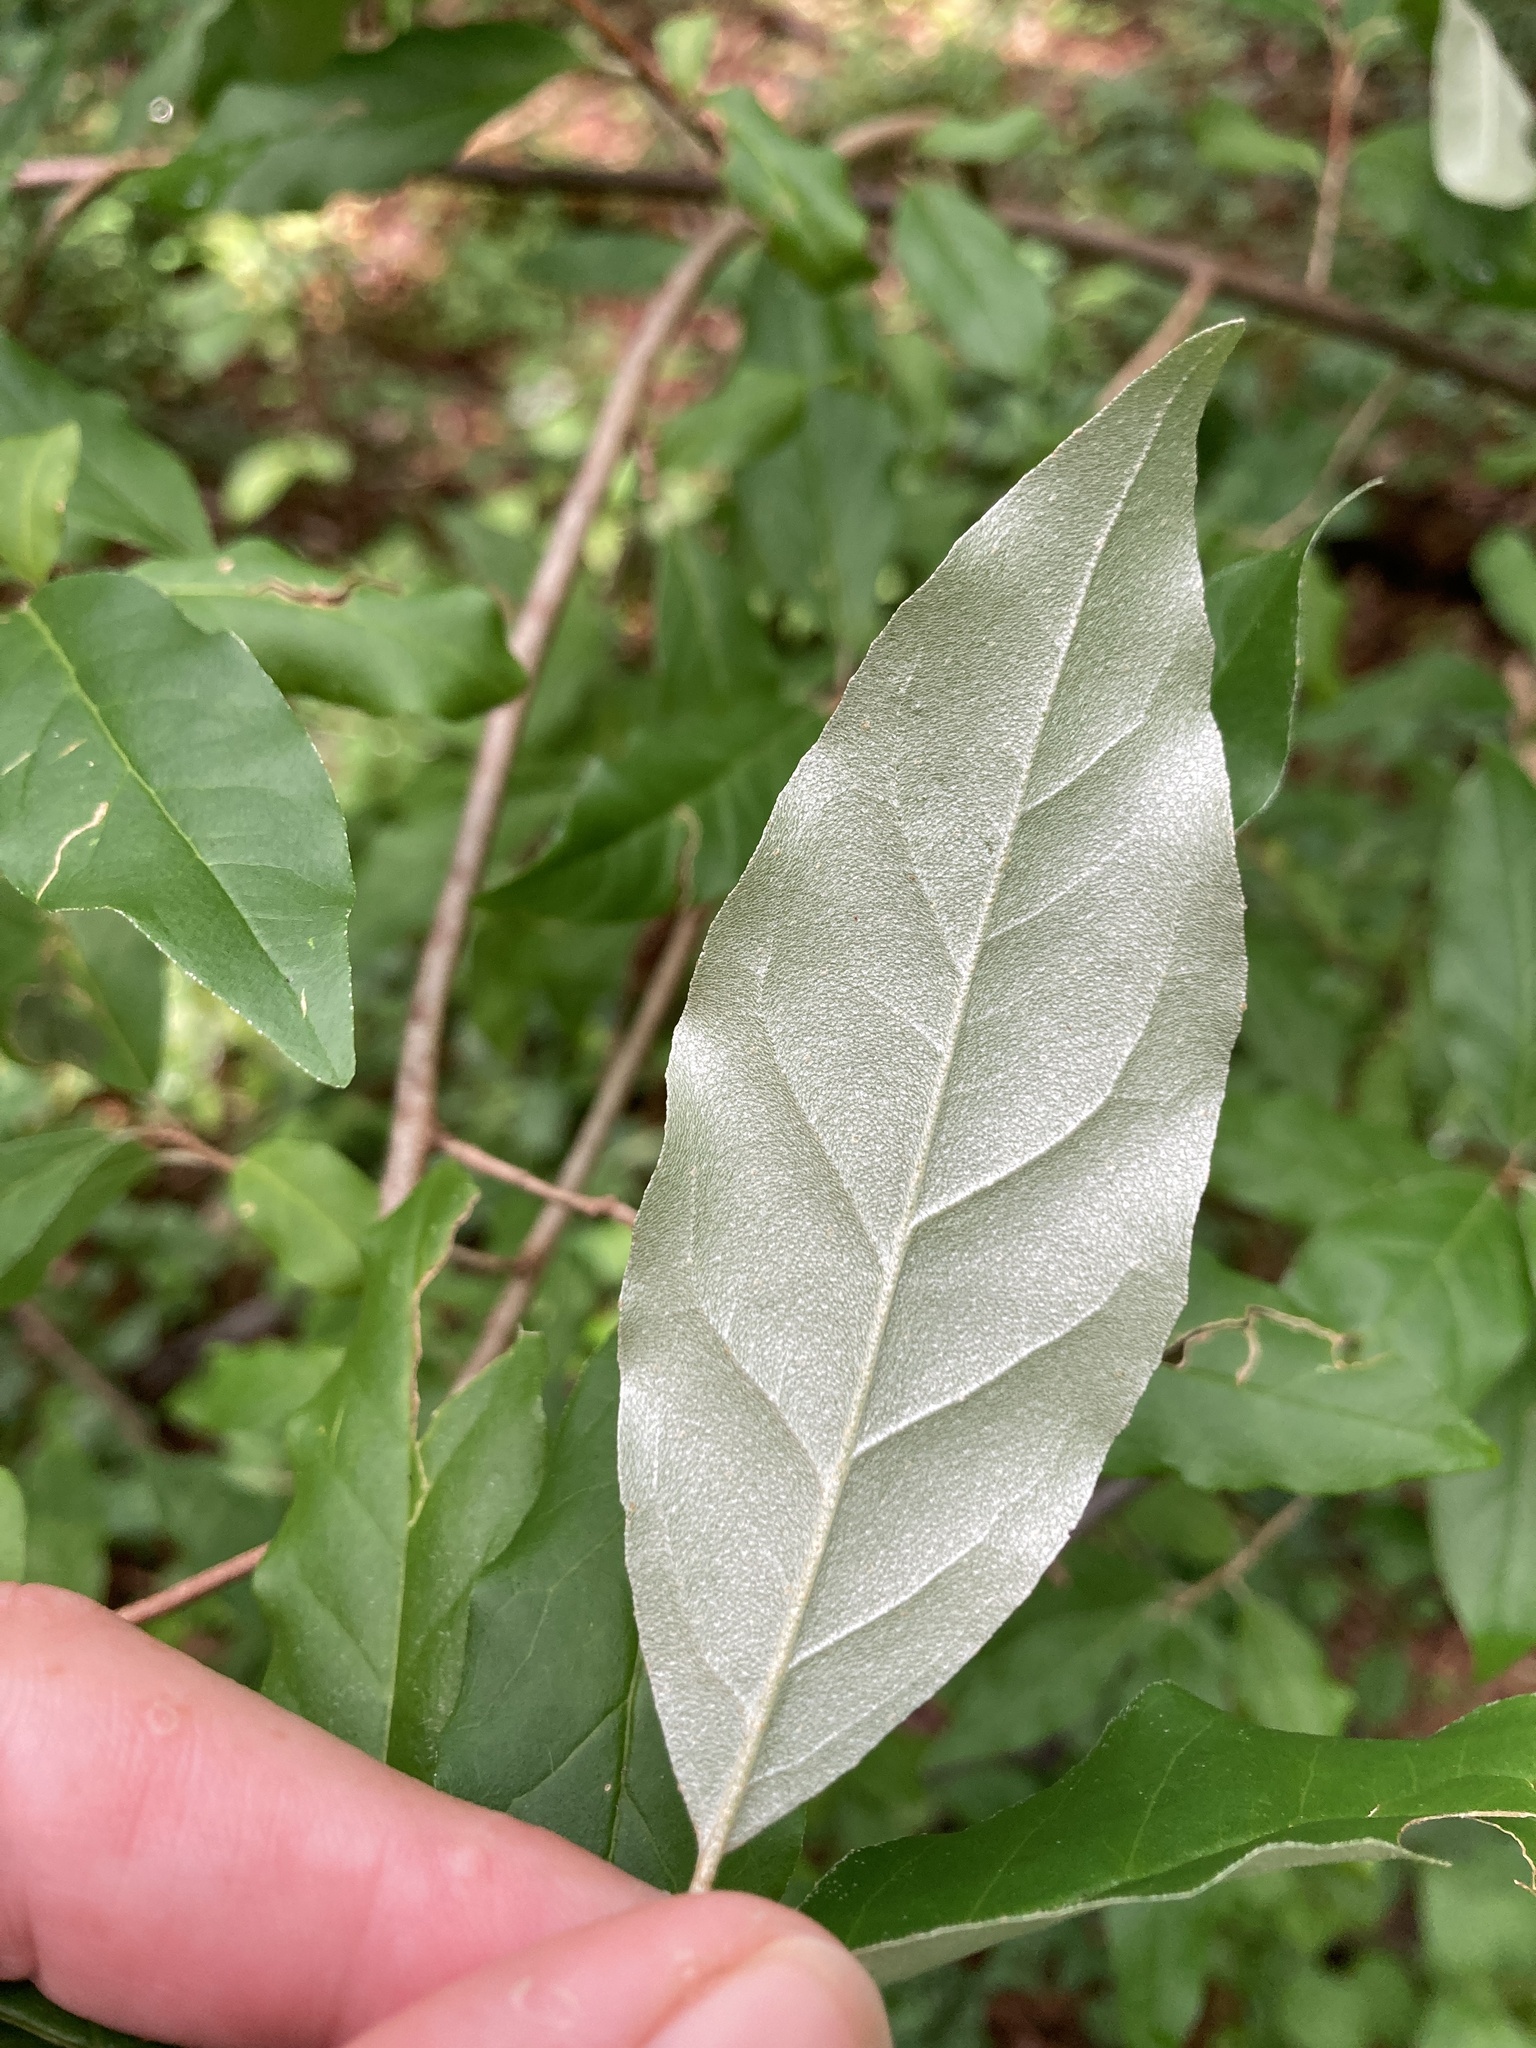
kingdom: Plantae
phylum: Tracheophyta
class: Magnoliopsida
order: Rosales
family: Elaeagnaceae
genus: Elaeagnus
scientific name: Elaeagnus umbellata
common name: Autumn olive
